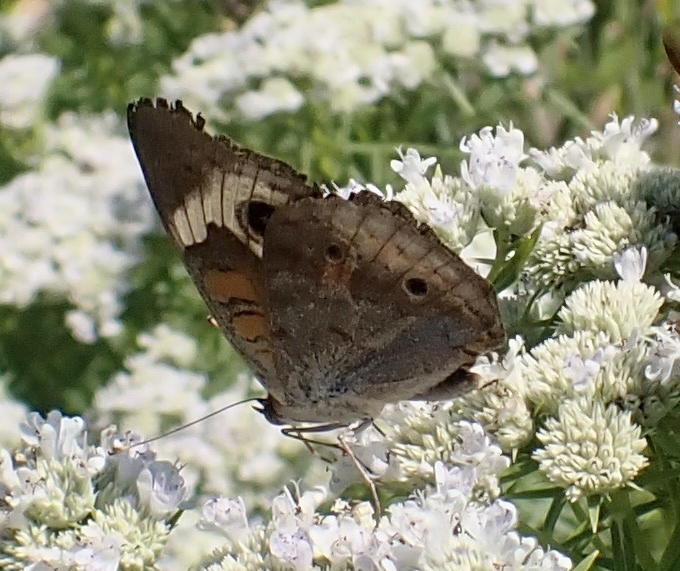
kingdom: Animalia
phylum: Arthropoda
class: Insecta
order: Lepidoptera
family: Nymphalidae
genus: Junonia
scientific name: Junonia coenia
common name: Common buckeye
